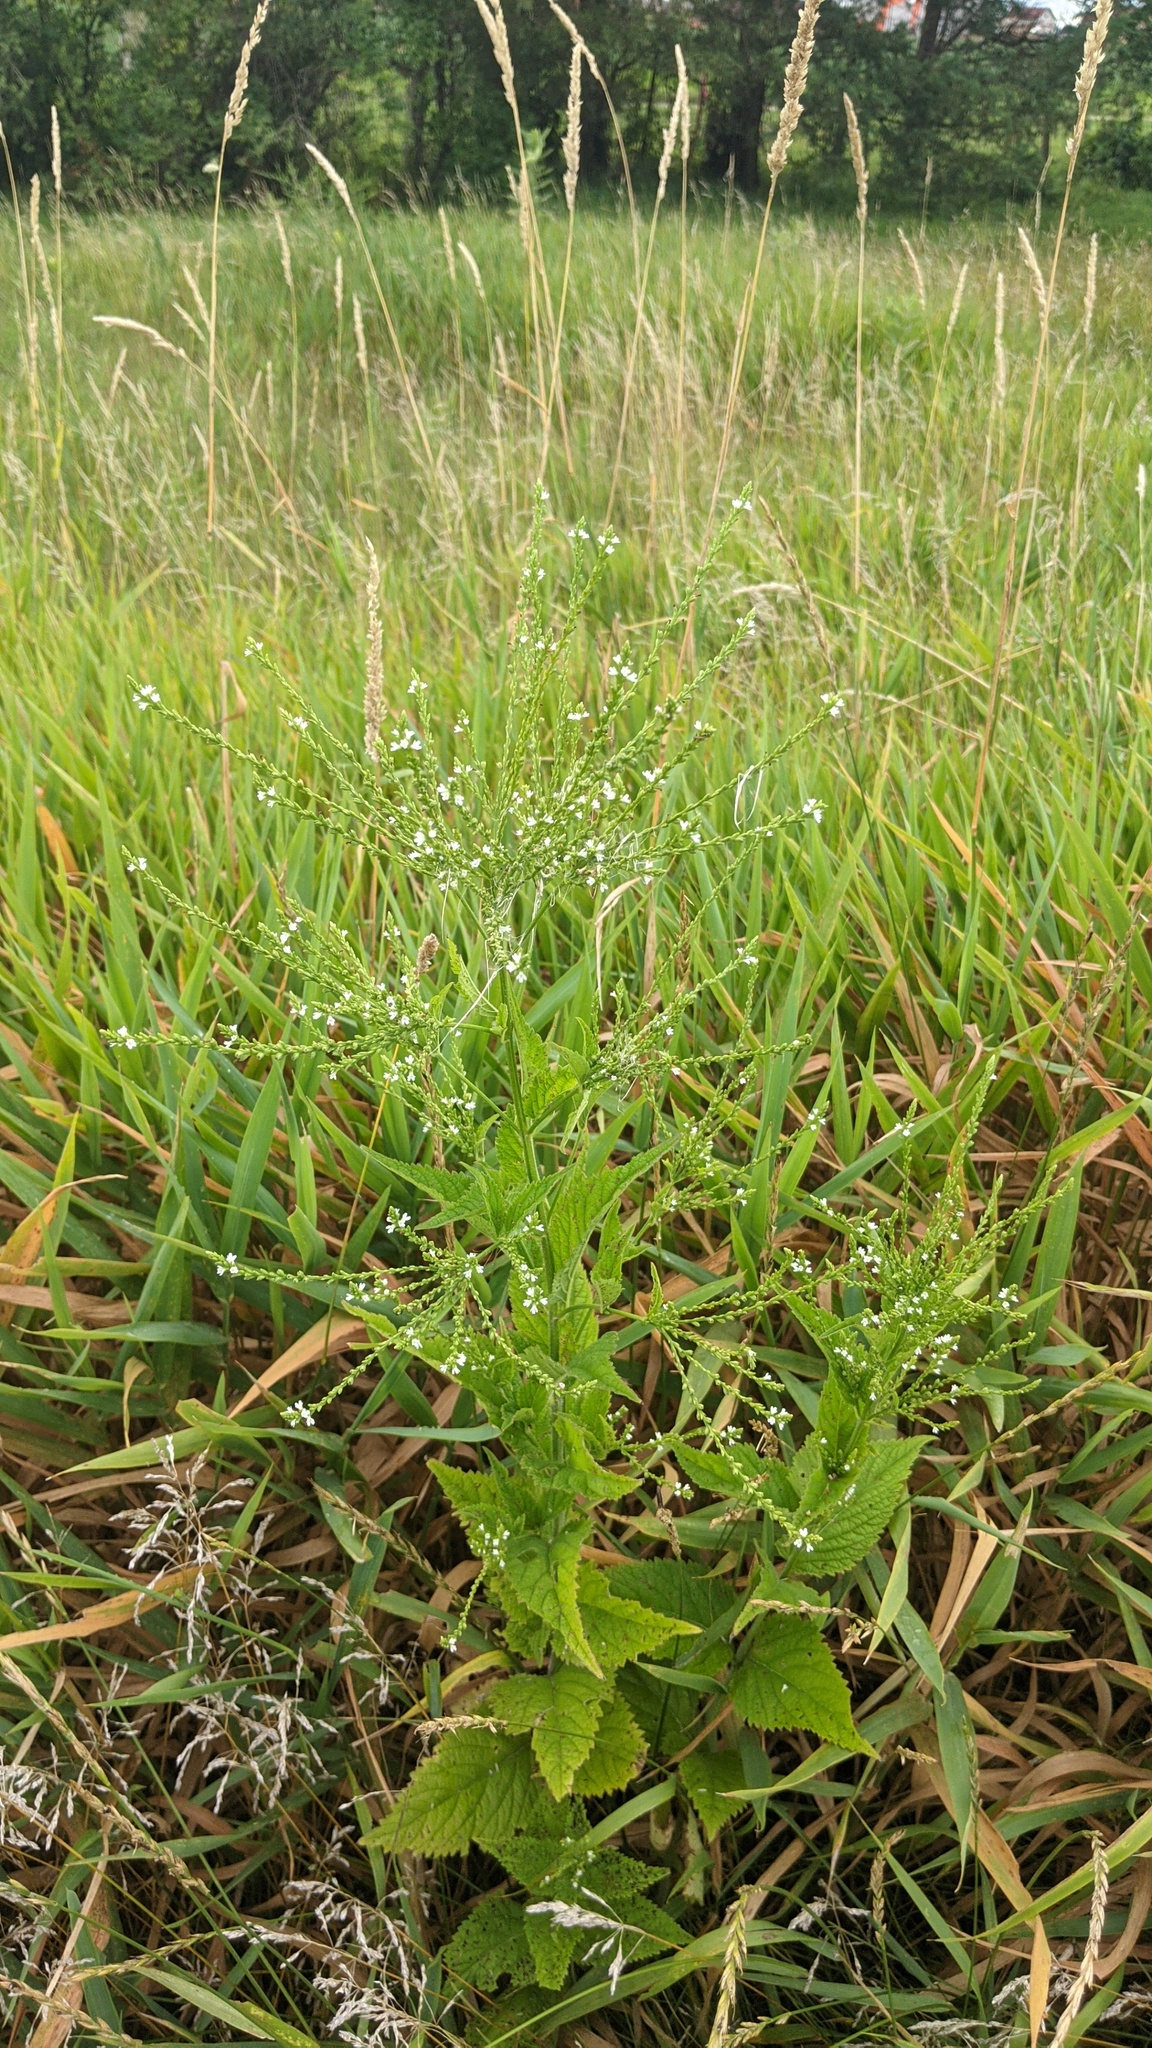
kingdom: Plantae
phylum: Tracheophyta
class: Magnoliopsida
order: Lamiales
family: Verbenaceae
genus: Verbena
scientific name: Verbena urticifolia
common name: Nettle-leaved vervain
